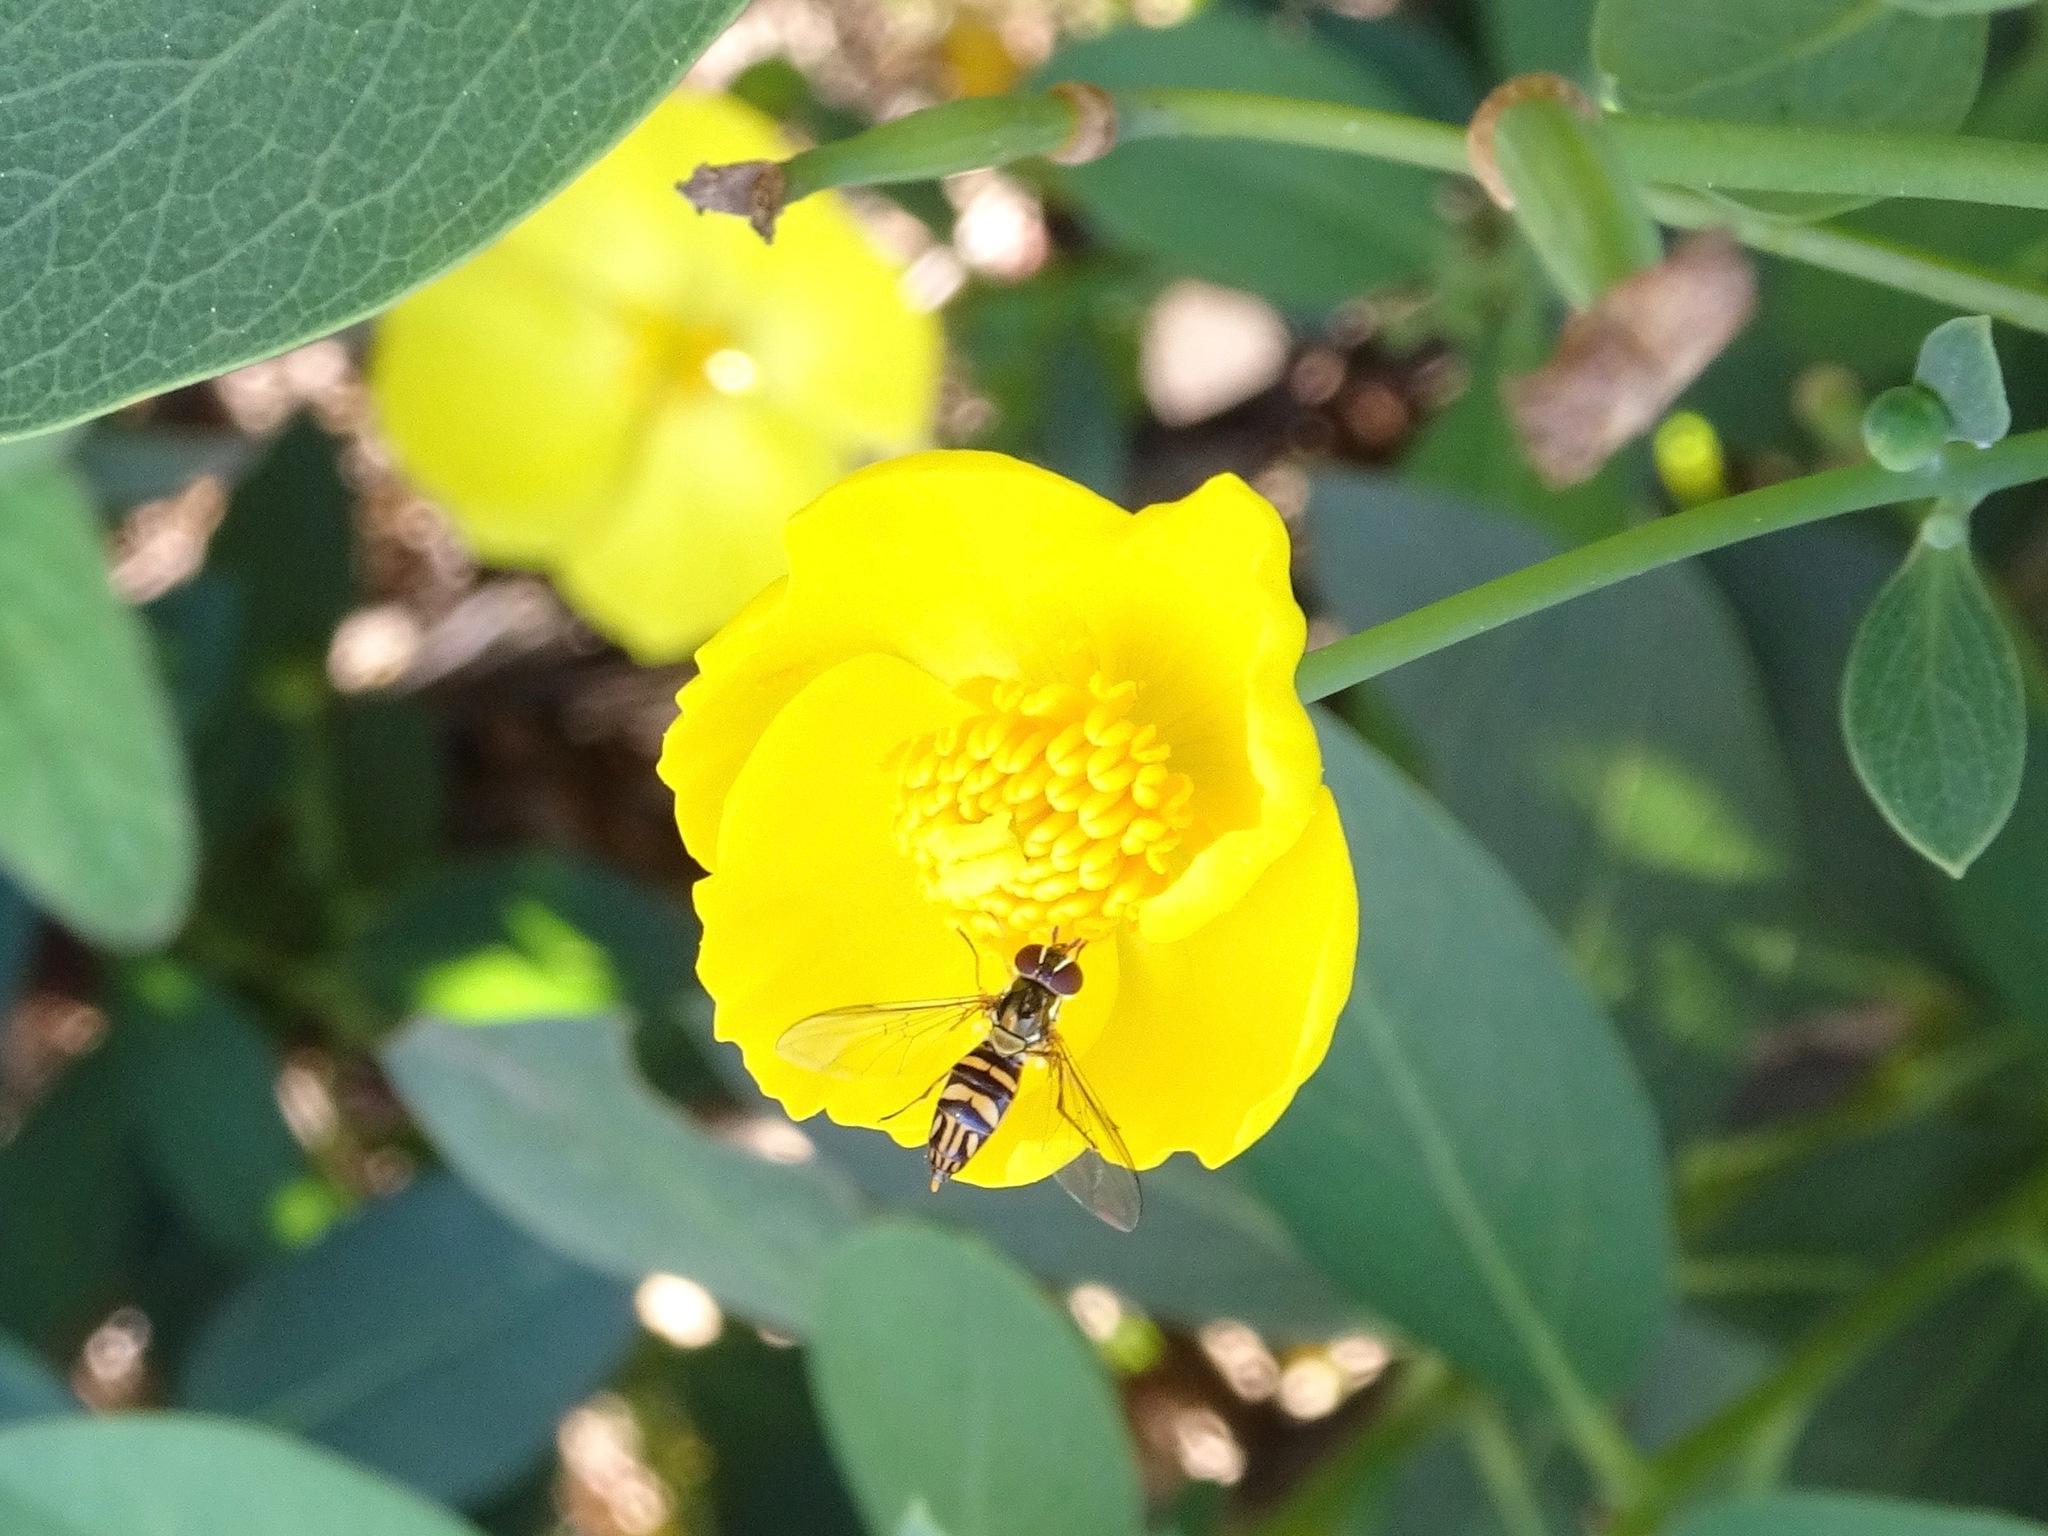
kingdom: Animalia
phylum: Arthropoda
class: Insecta
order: Diptera
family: Syrphidae
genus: Allograpta
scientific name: Allograpta obliqua
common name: Common oblique syrphid
